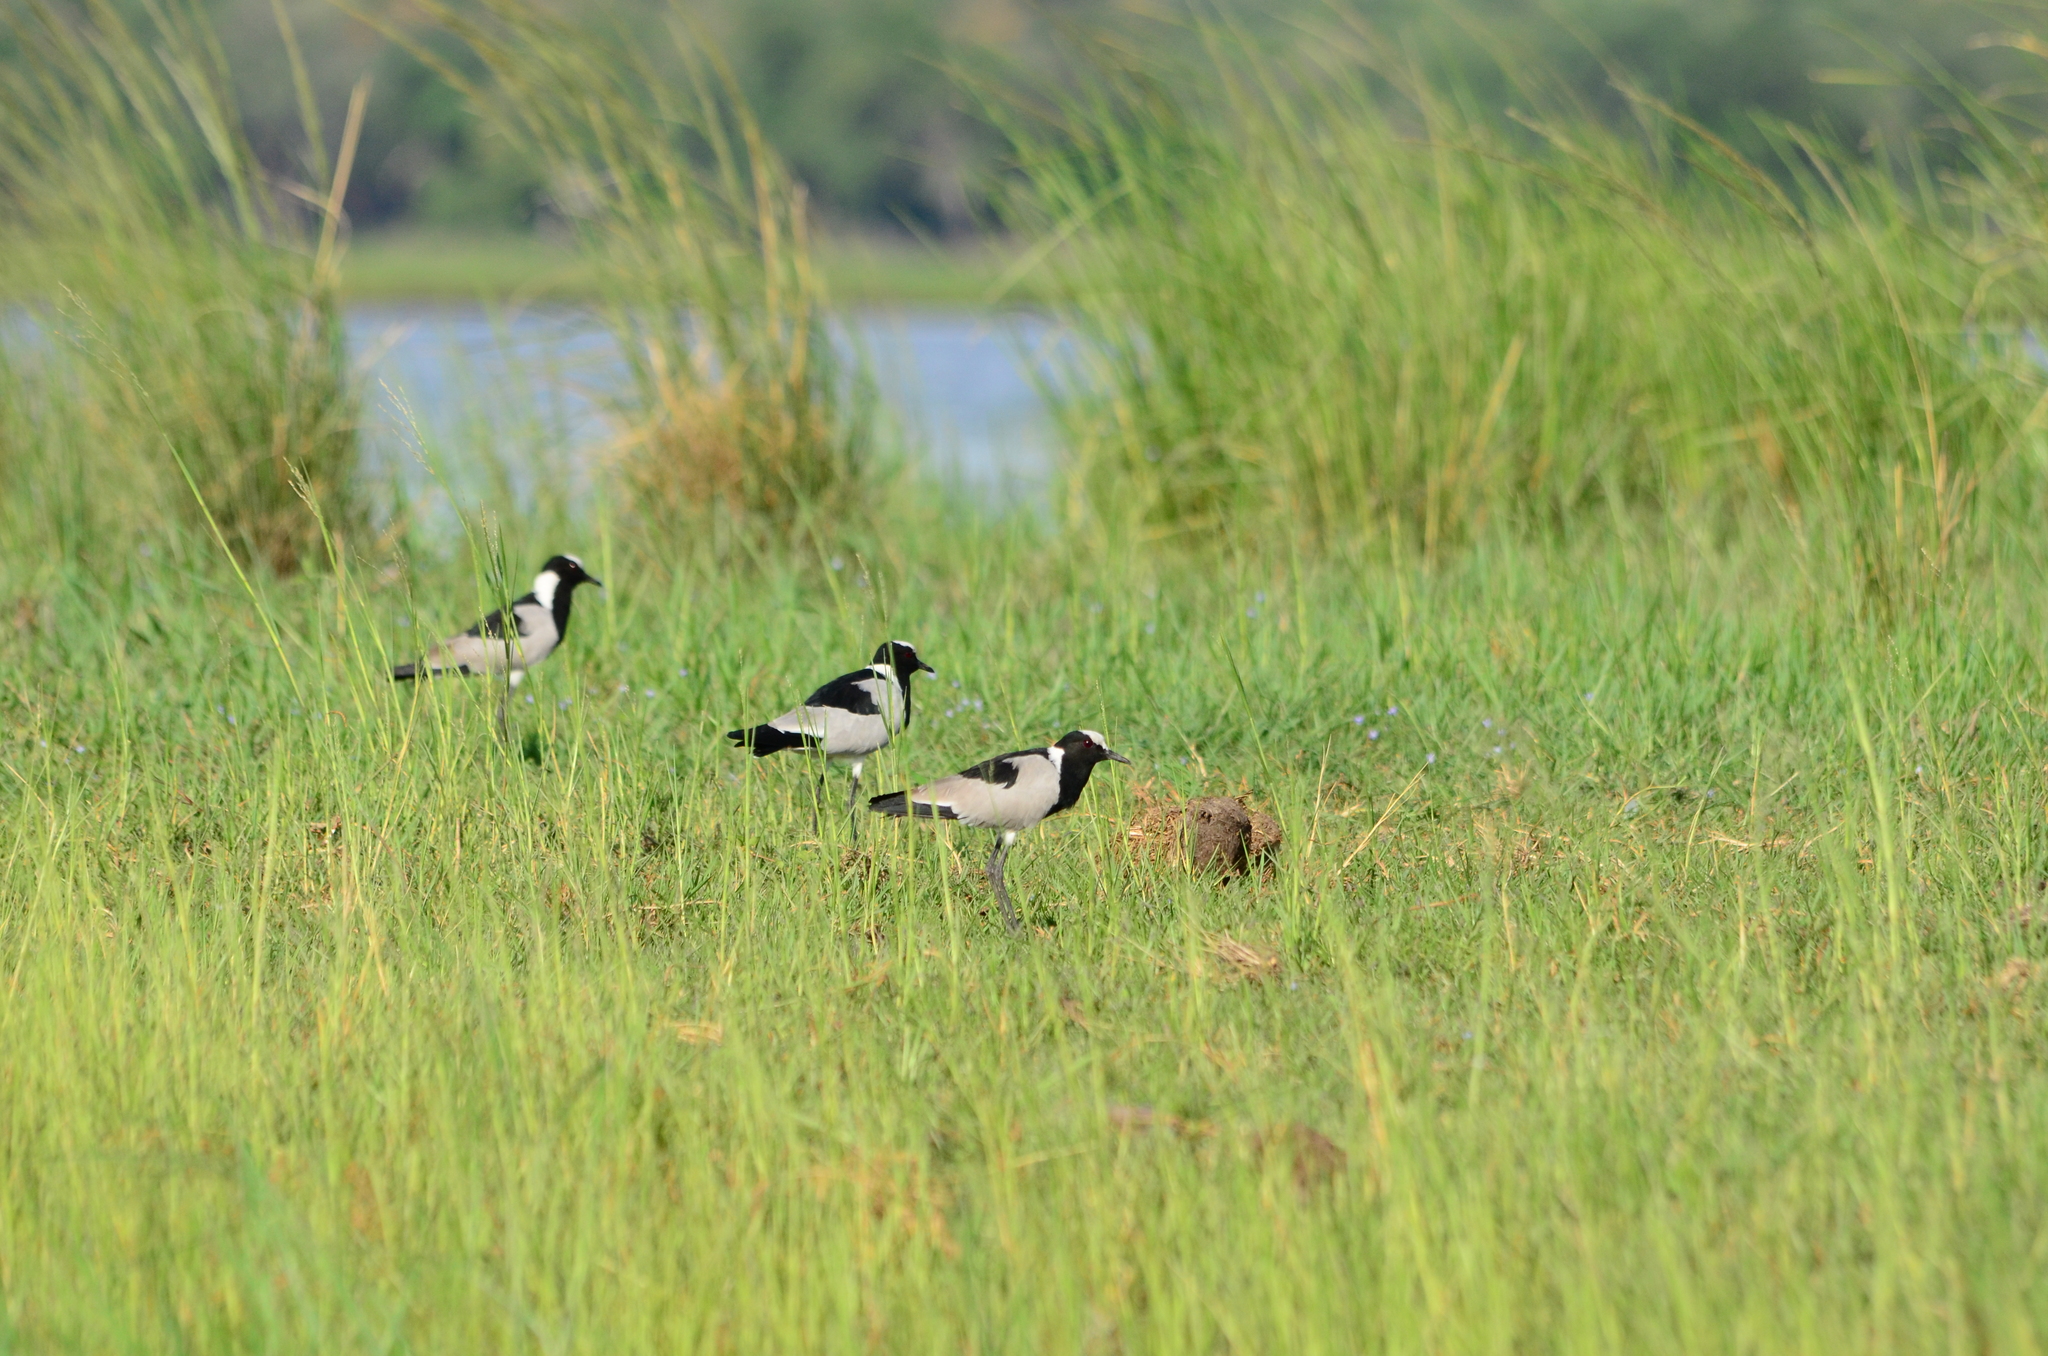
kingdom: Animalia
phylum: Chordata
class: Aves
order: Charadriiformes
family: Charadriidae
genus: Vanellus
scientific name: Vanellus armatus
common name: Blacksmith lapwing
